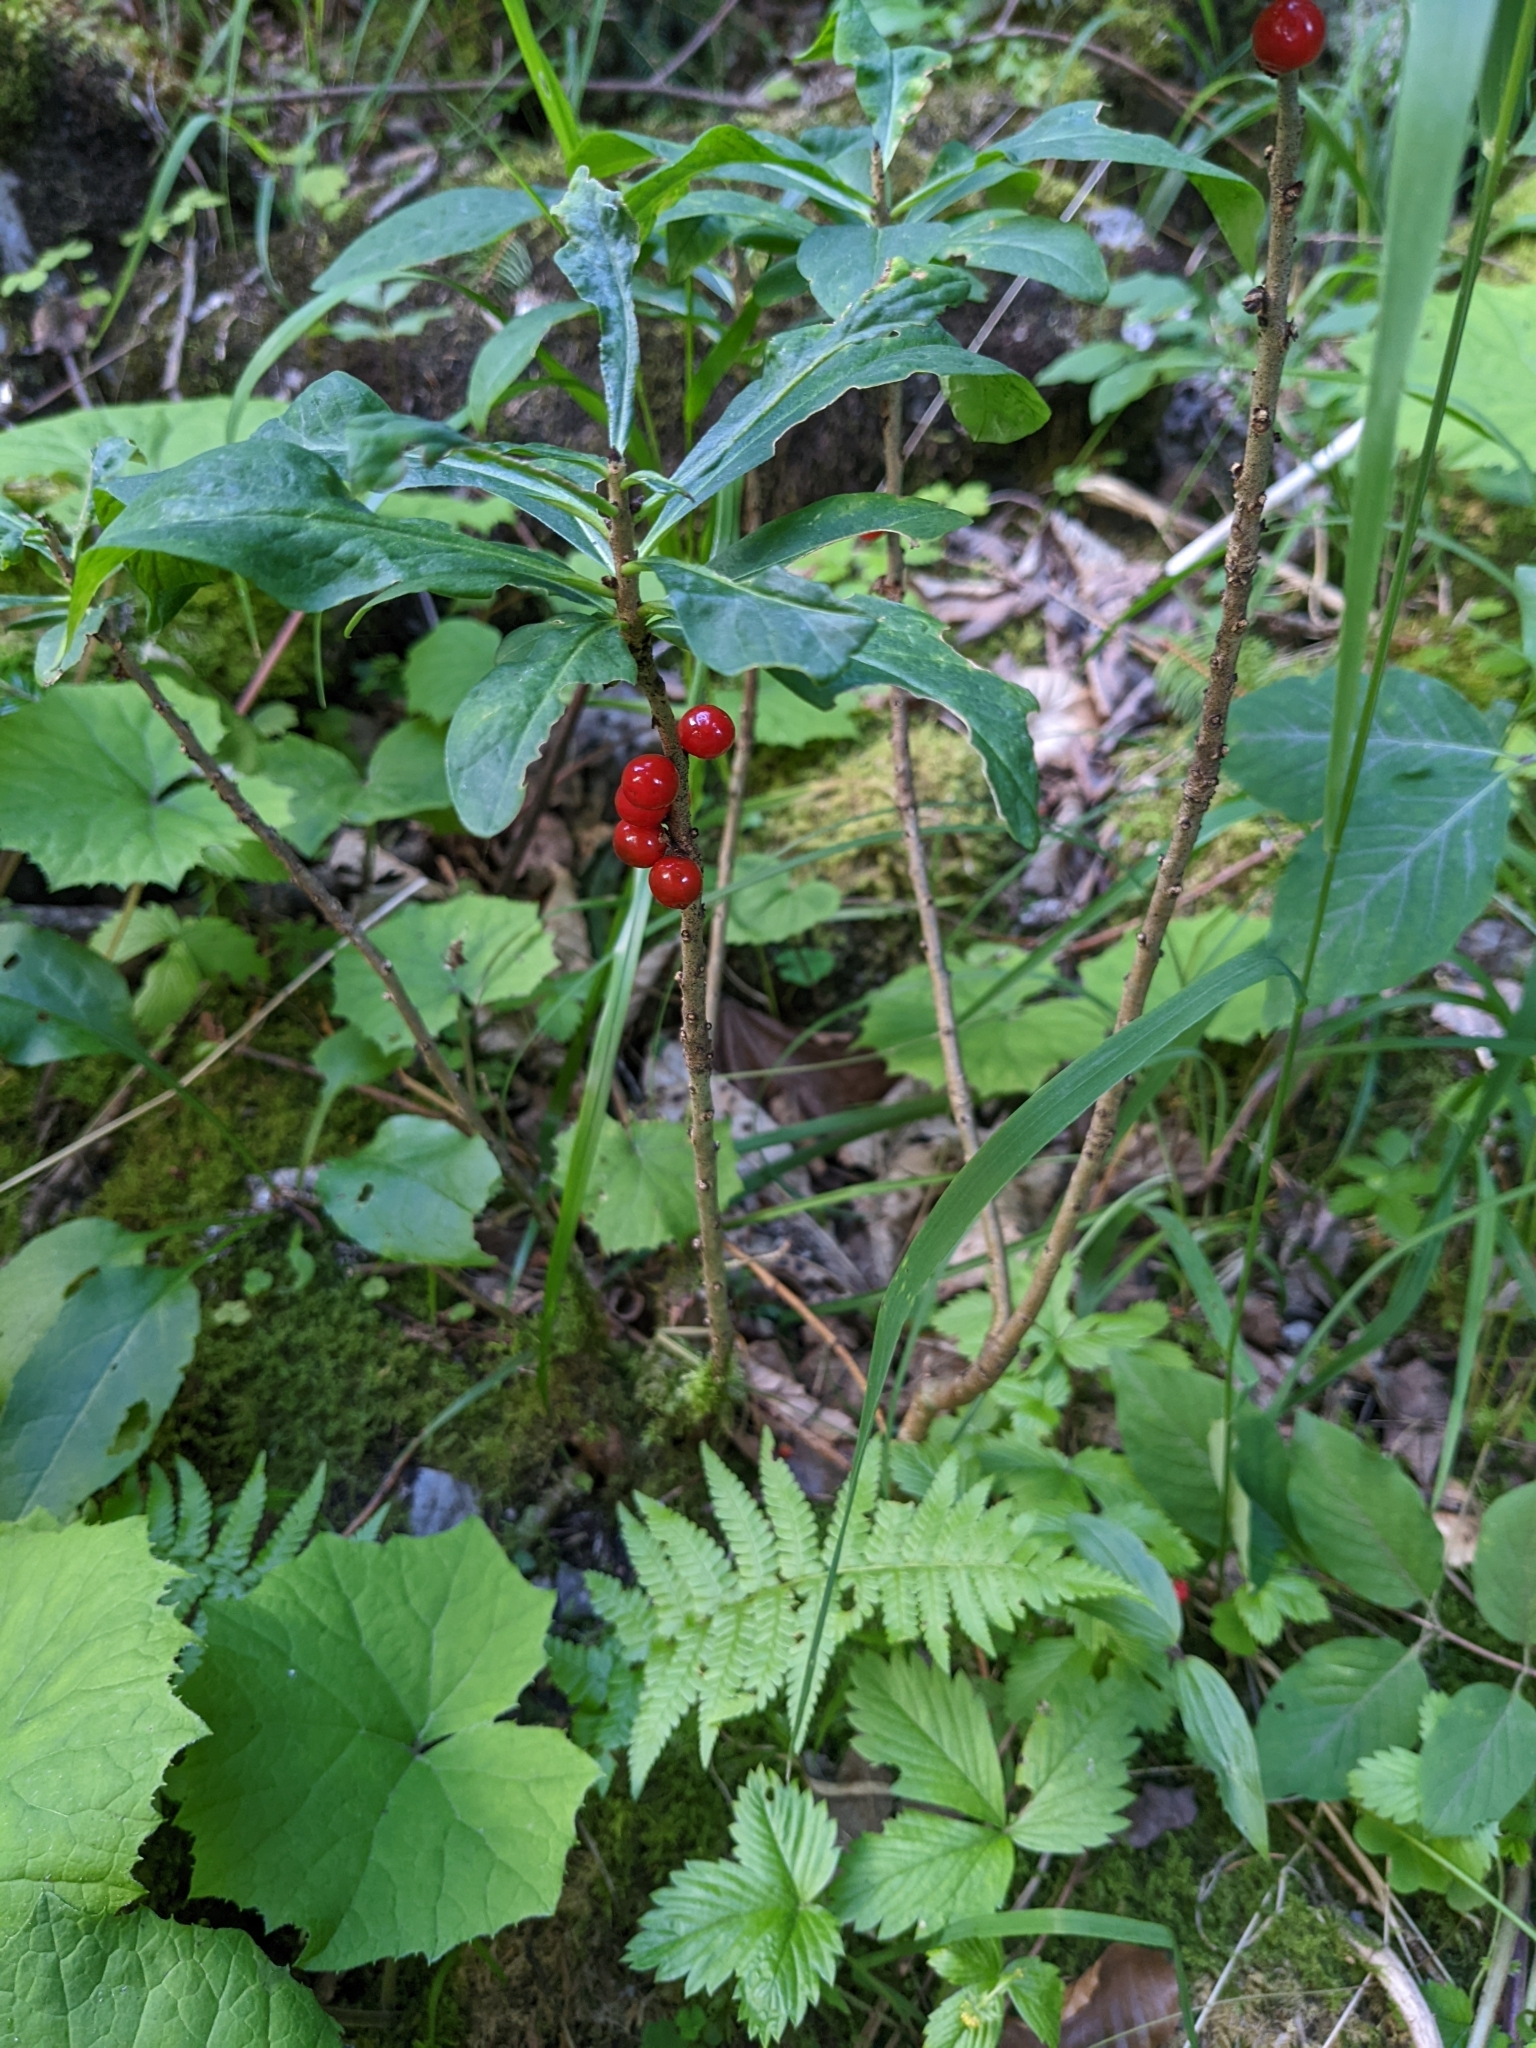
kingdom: Plantae
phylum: Tracheophyta
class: Magnoliopsida
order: Malvales
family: Thymelaeaceae
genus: Daphne
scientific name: Daphne mezereum
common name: Mezereon
